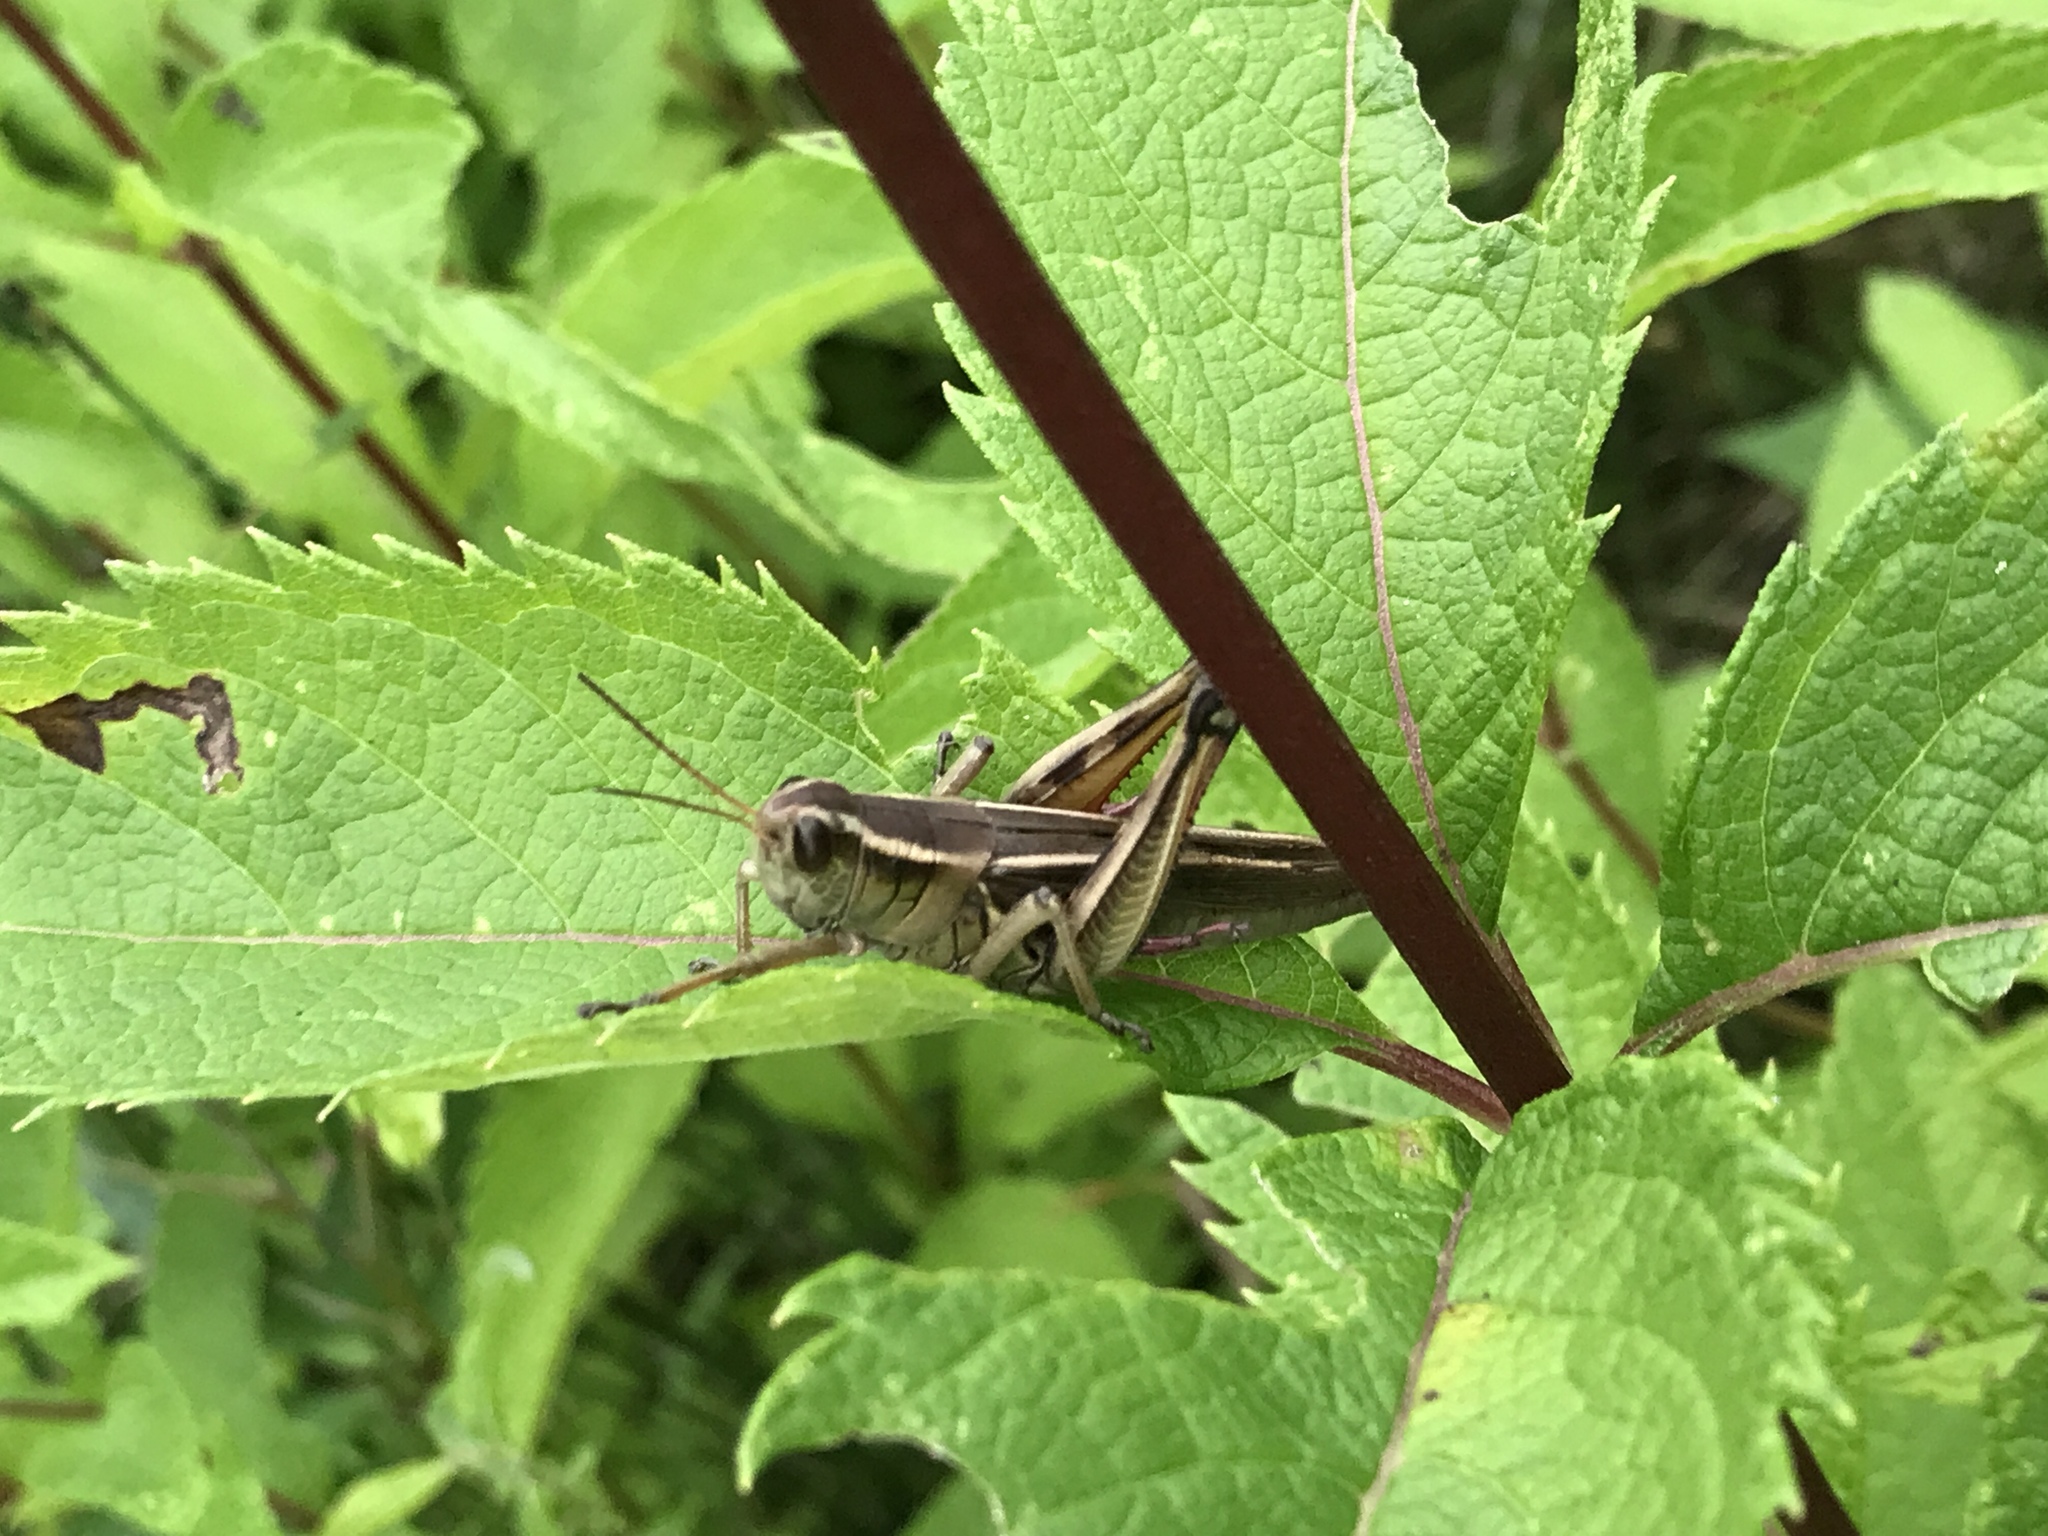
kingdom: Animalia
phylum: Arthropoda
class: Insecta
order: Orthoptera
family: Acrididae
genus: Melanoplus
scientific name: Melanoplus bivittatus
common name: Two-striped grasshopper
